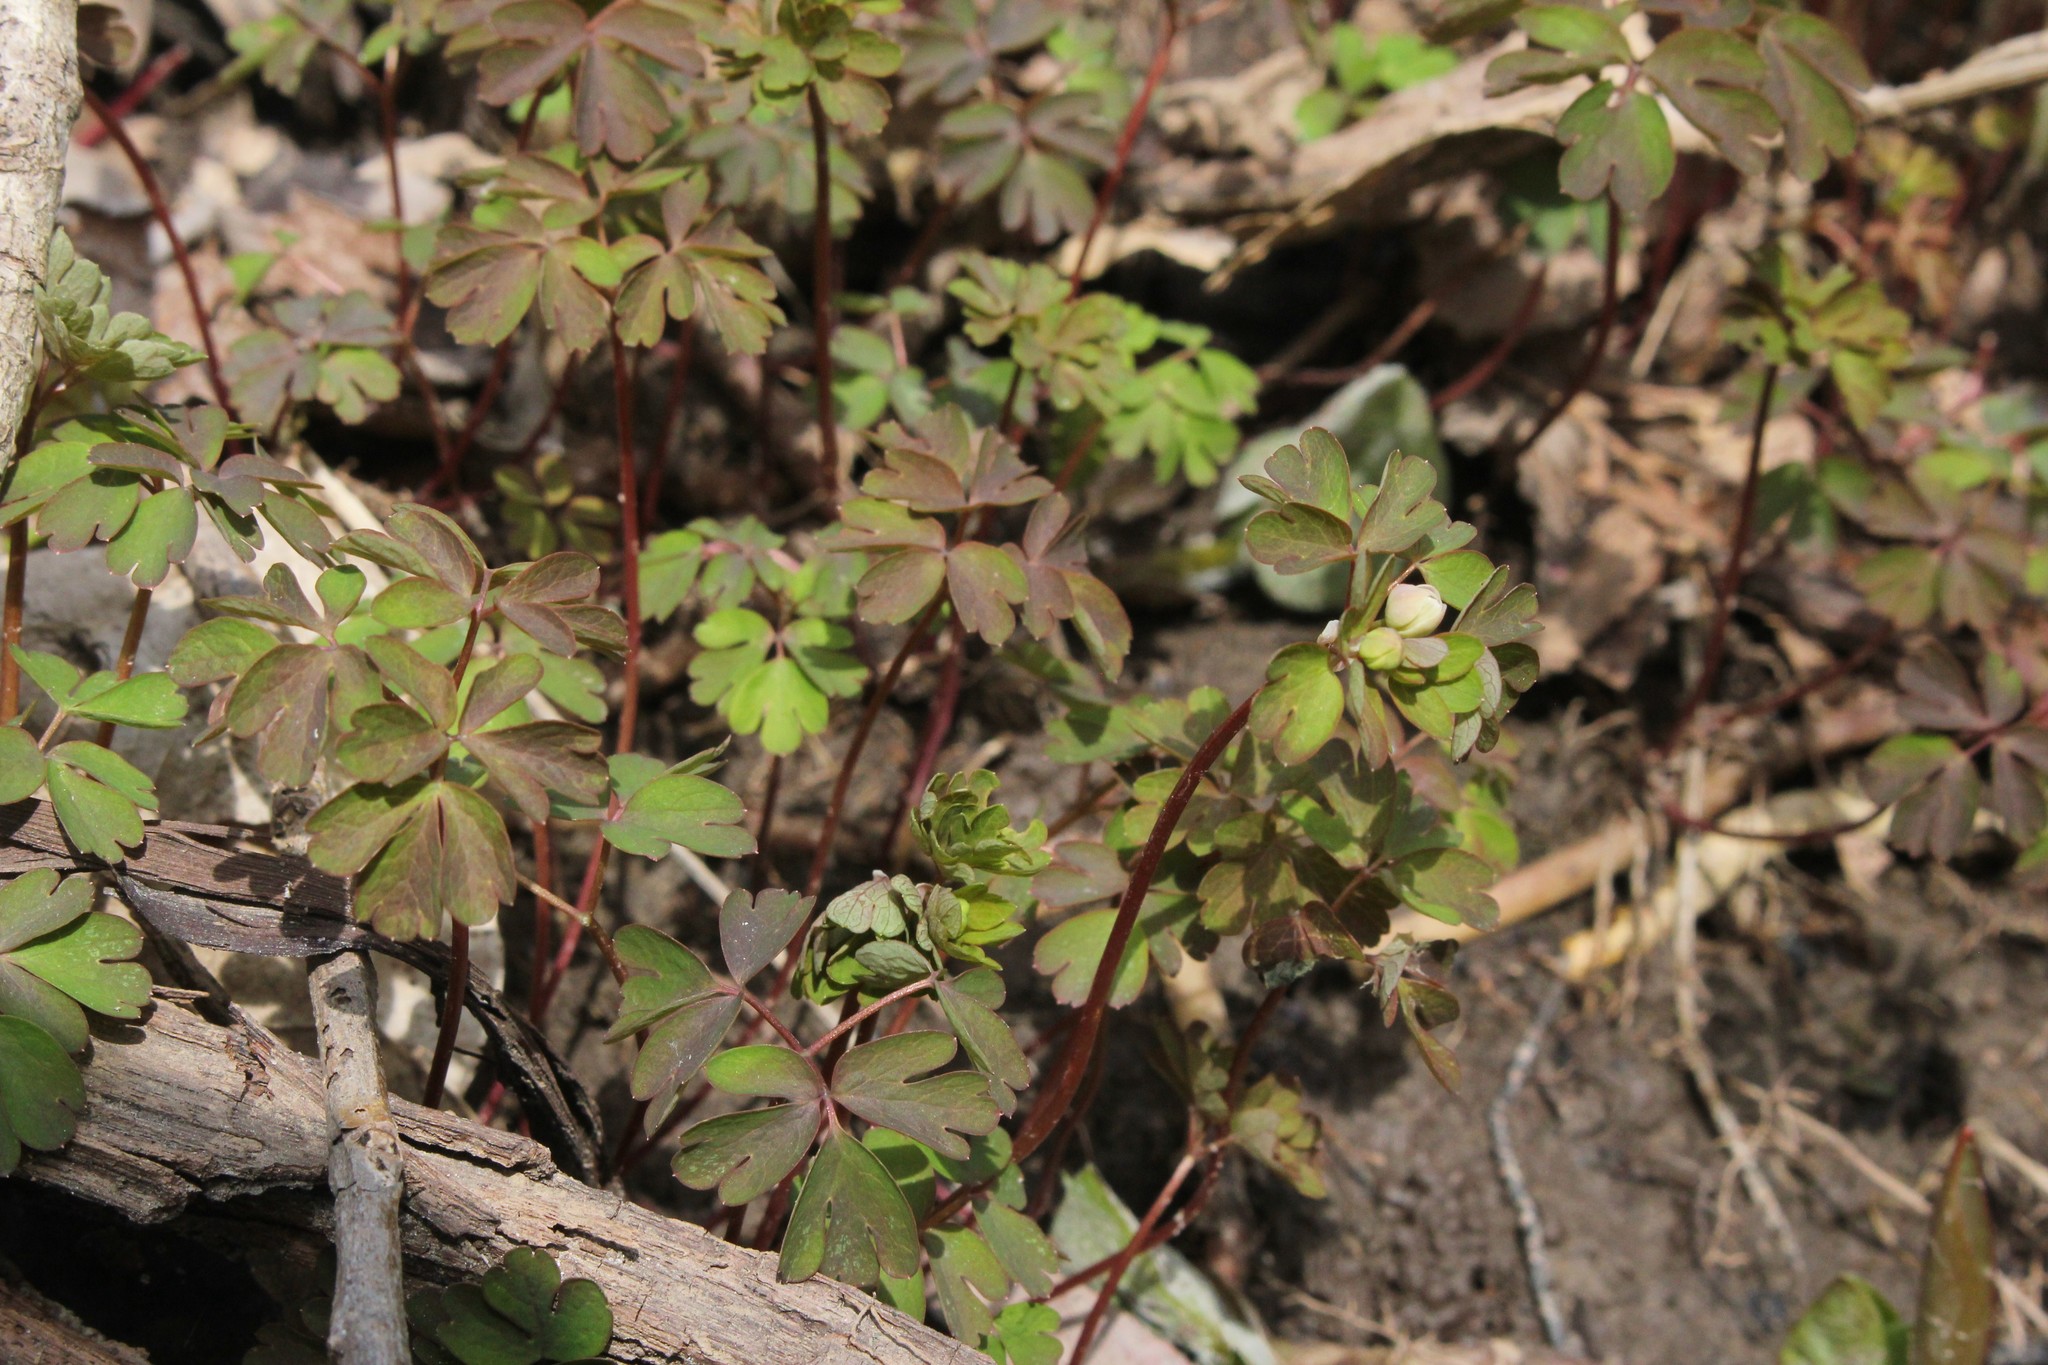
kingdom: Plantae
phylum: Tracheophyta
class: Magnoliopsida
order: Ranunculales
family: Ranunculaceae
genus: Enemion
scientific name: Enemion biternatum
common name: Eastern false rue-anemone
